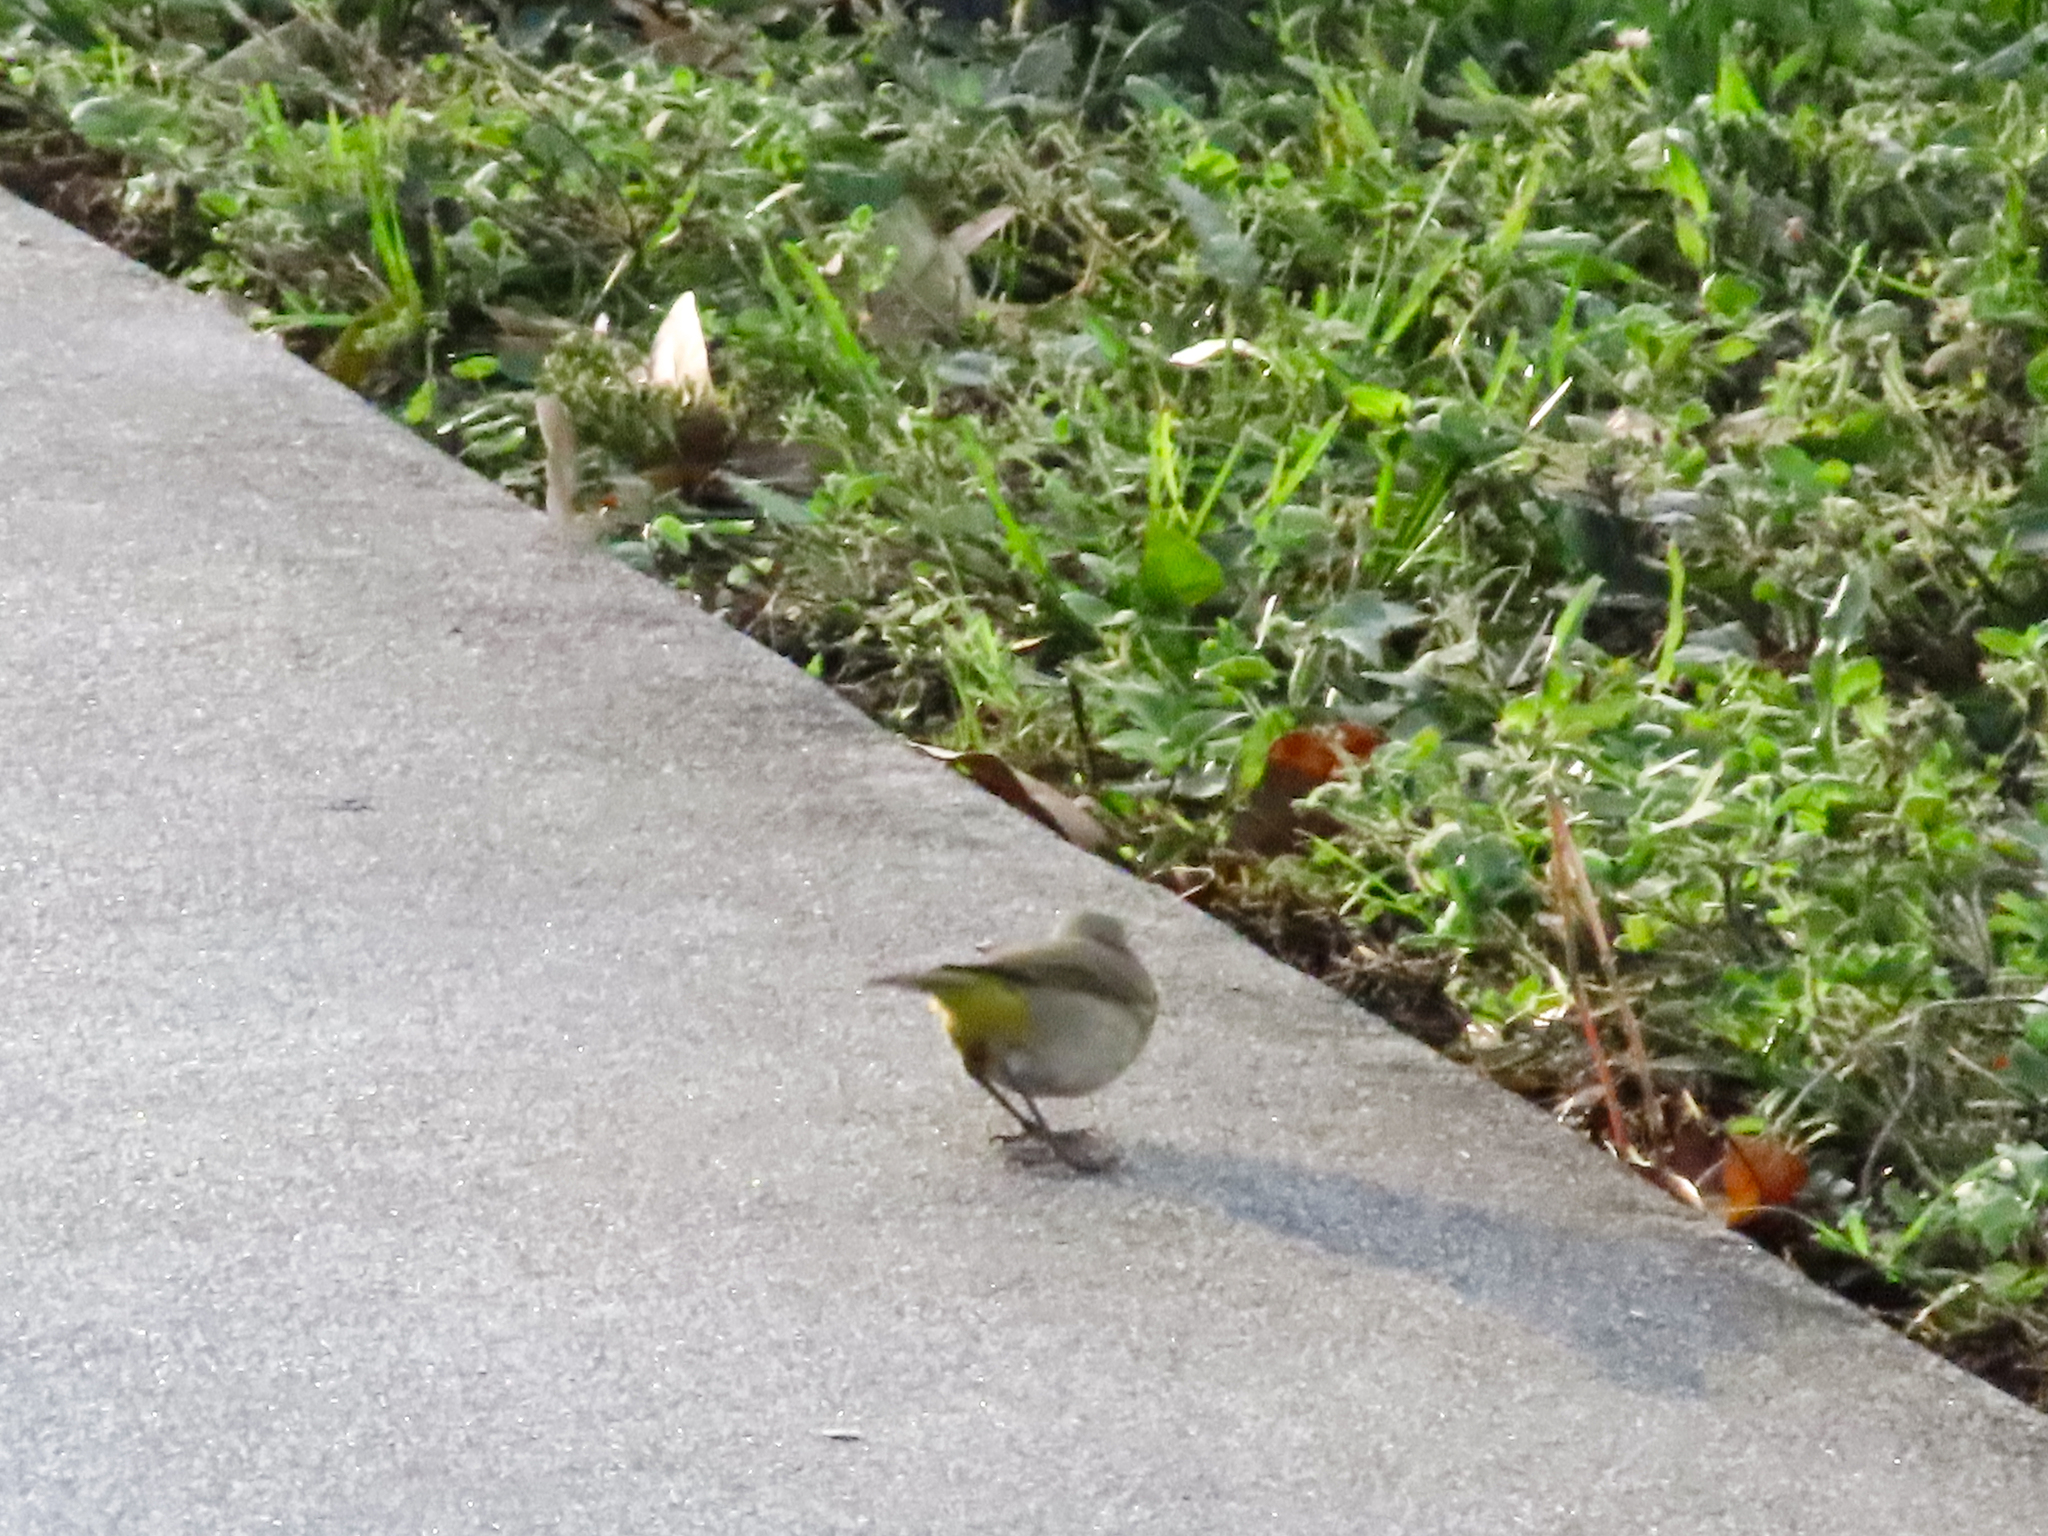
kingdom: Animalia
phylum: Chordata
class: Aves
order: Passeriformes
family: Parulidae
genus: Setophaga
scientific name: Setophaga palmarum
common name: Palm warbler
